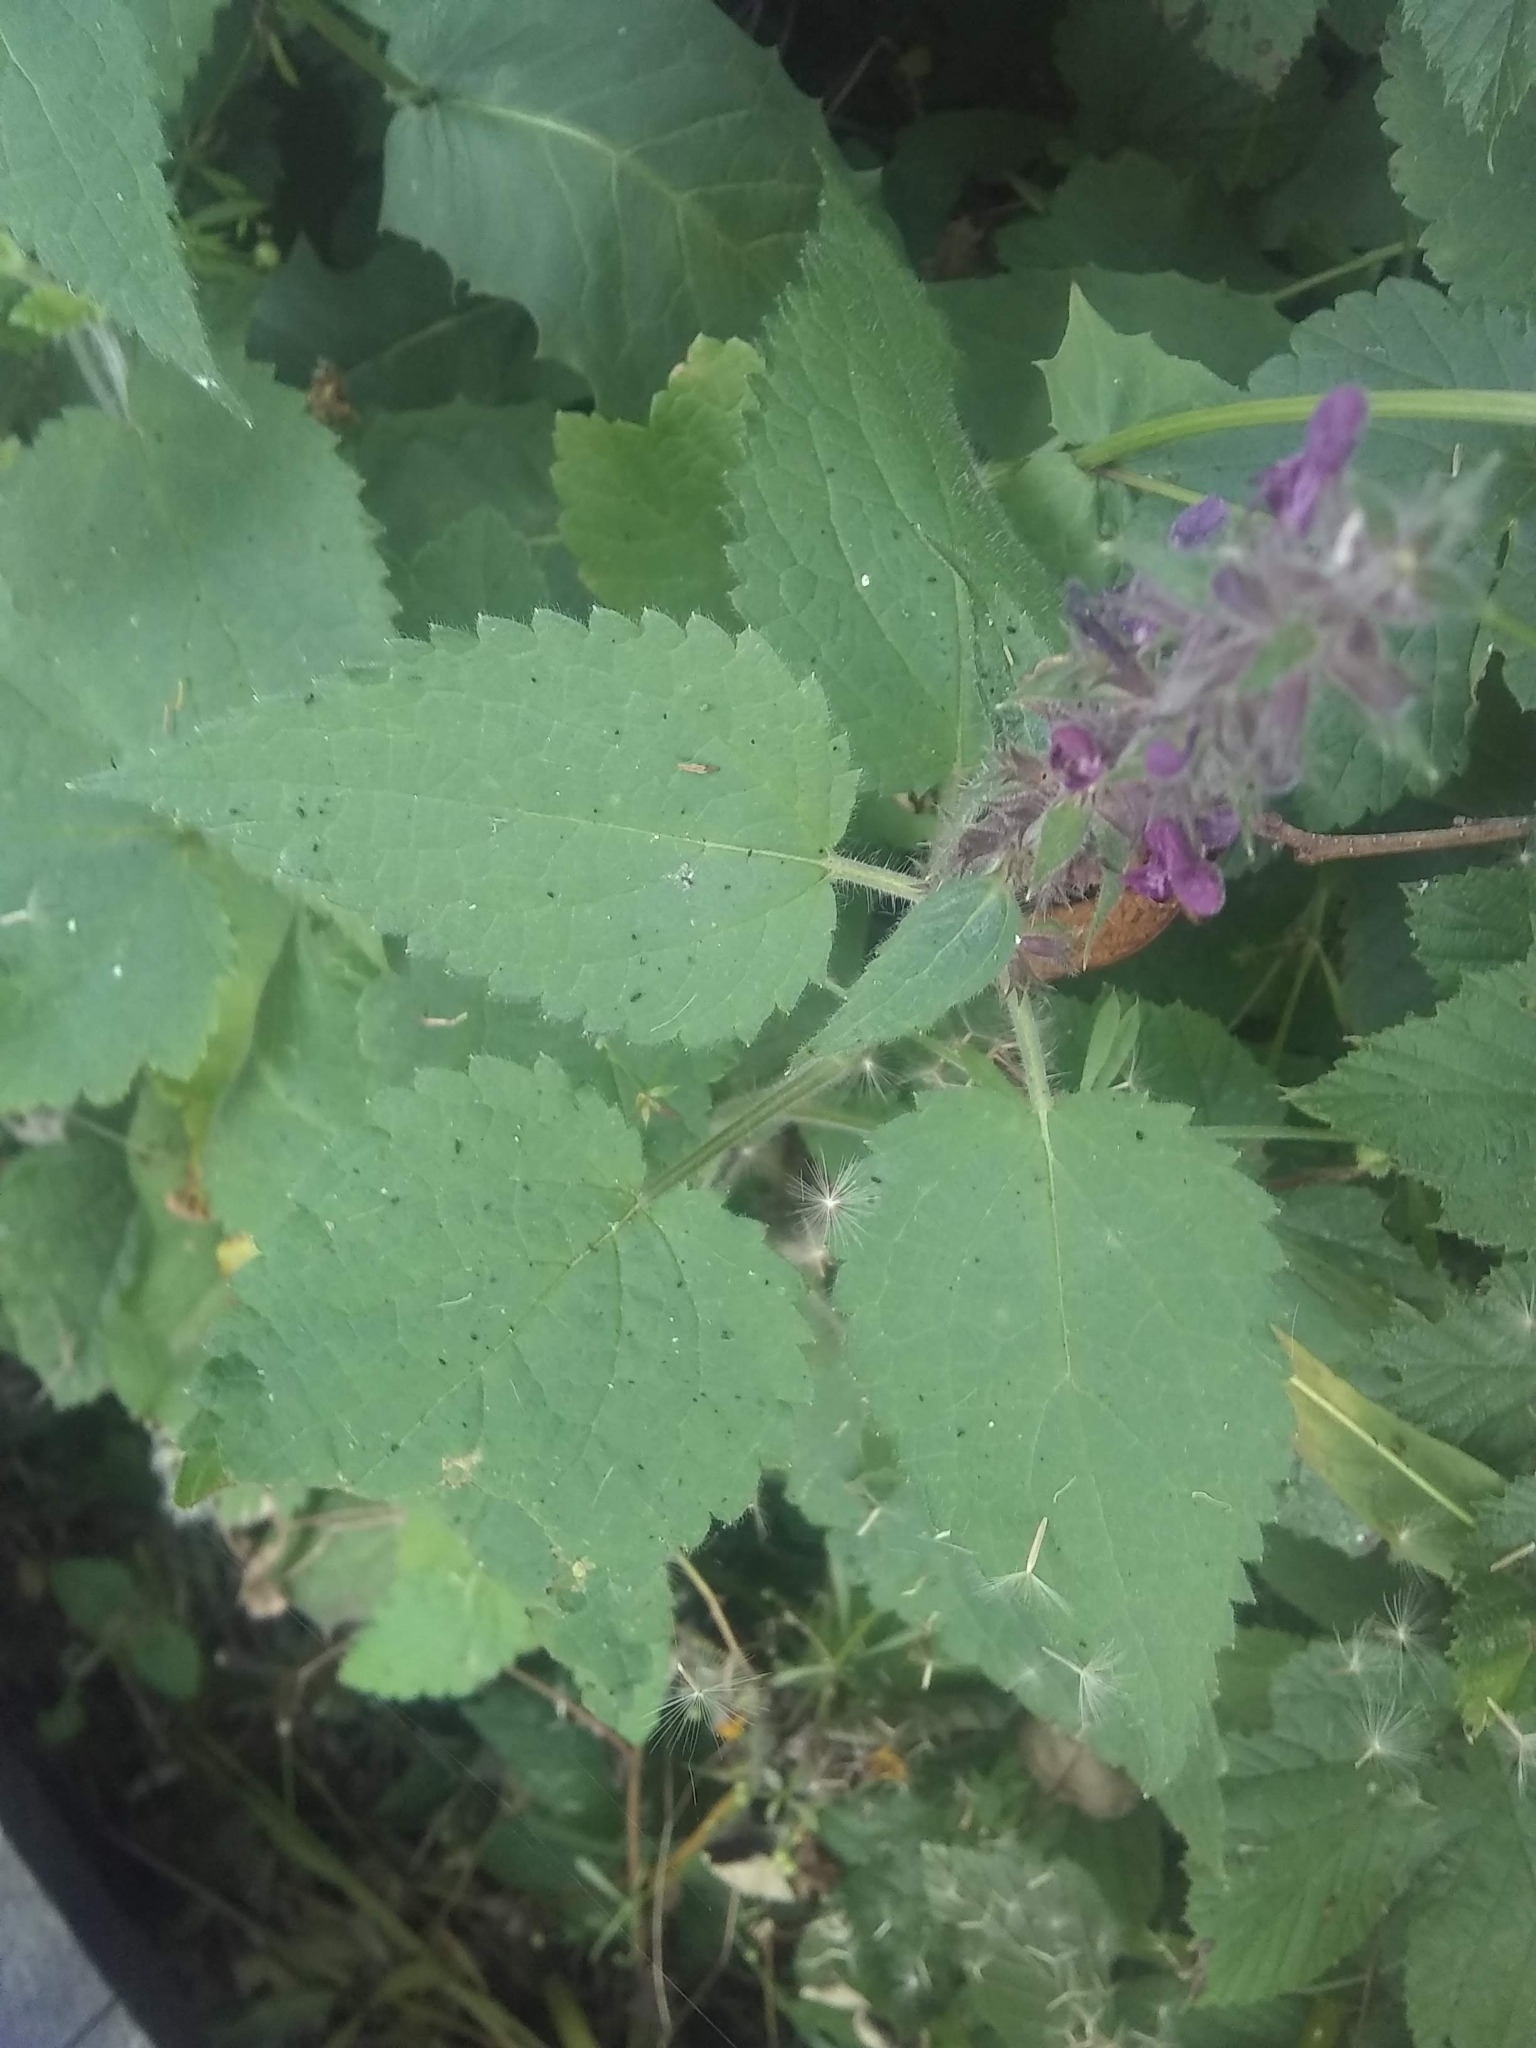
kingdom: Plantae
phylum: Tracheophyta
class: Magnoliopsida
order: Lamiales
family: Lamiaceae
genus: Stachys
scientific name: Stachys sylvatica
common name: Hedge woundwort
